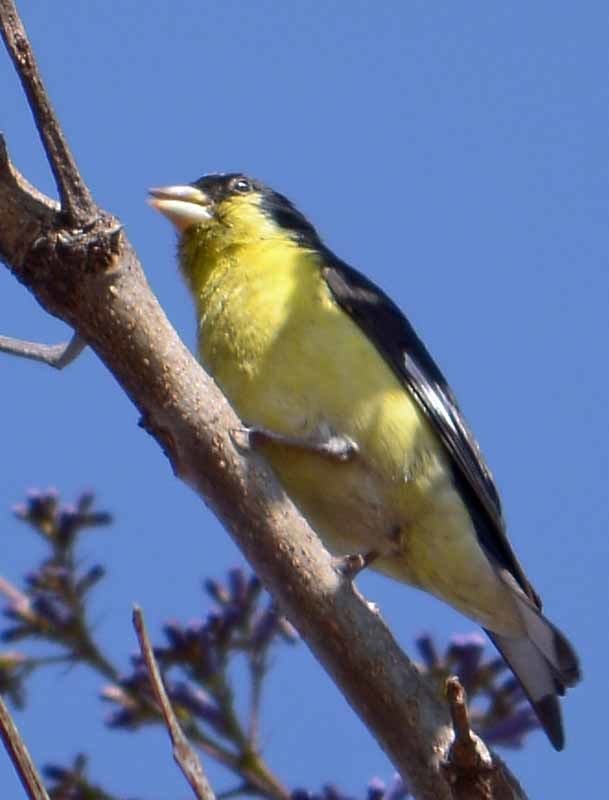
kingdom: Animalia
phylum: Chordata
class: Aves
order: Passeriformes
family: Fringillidae
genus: Spinus
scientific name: Spinus psaltria
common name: Lesser goldfinch
